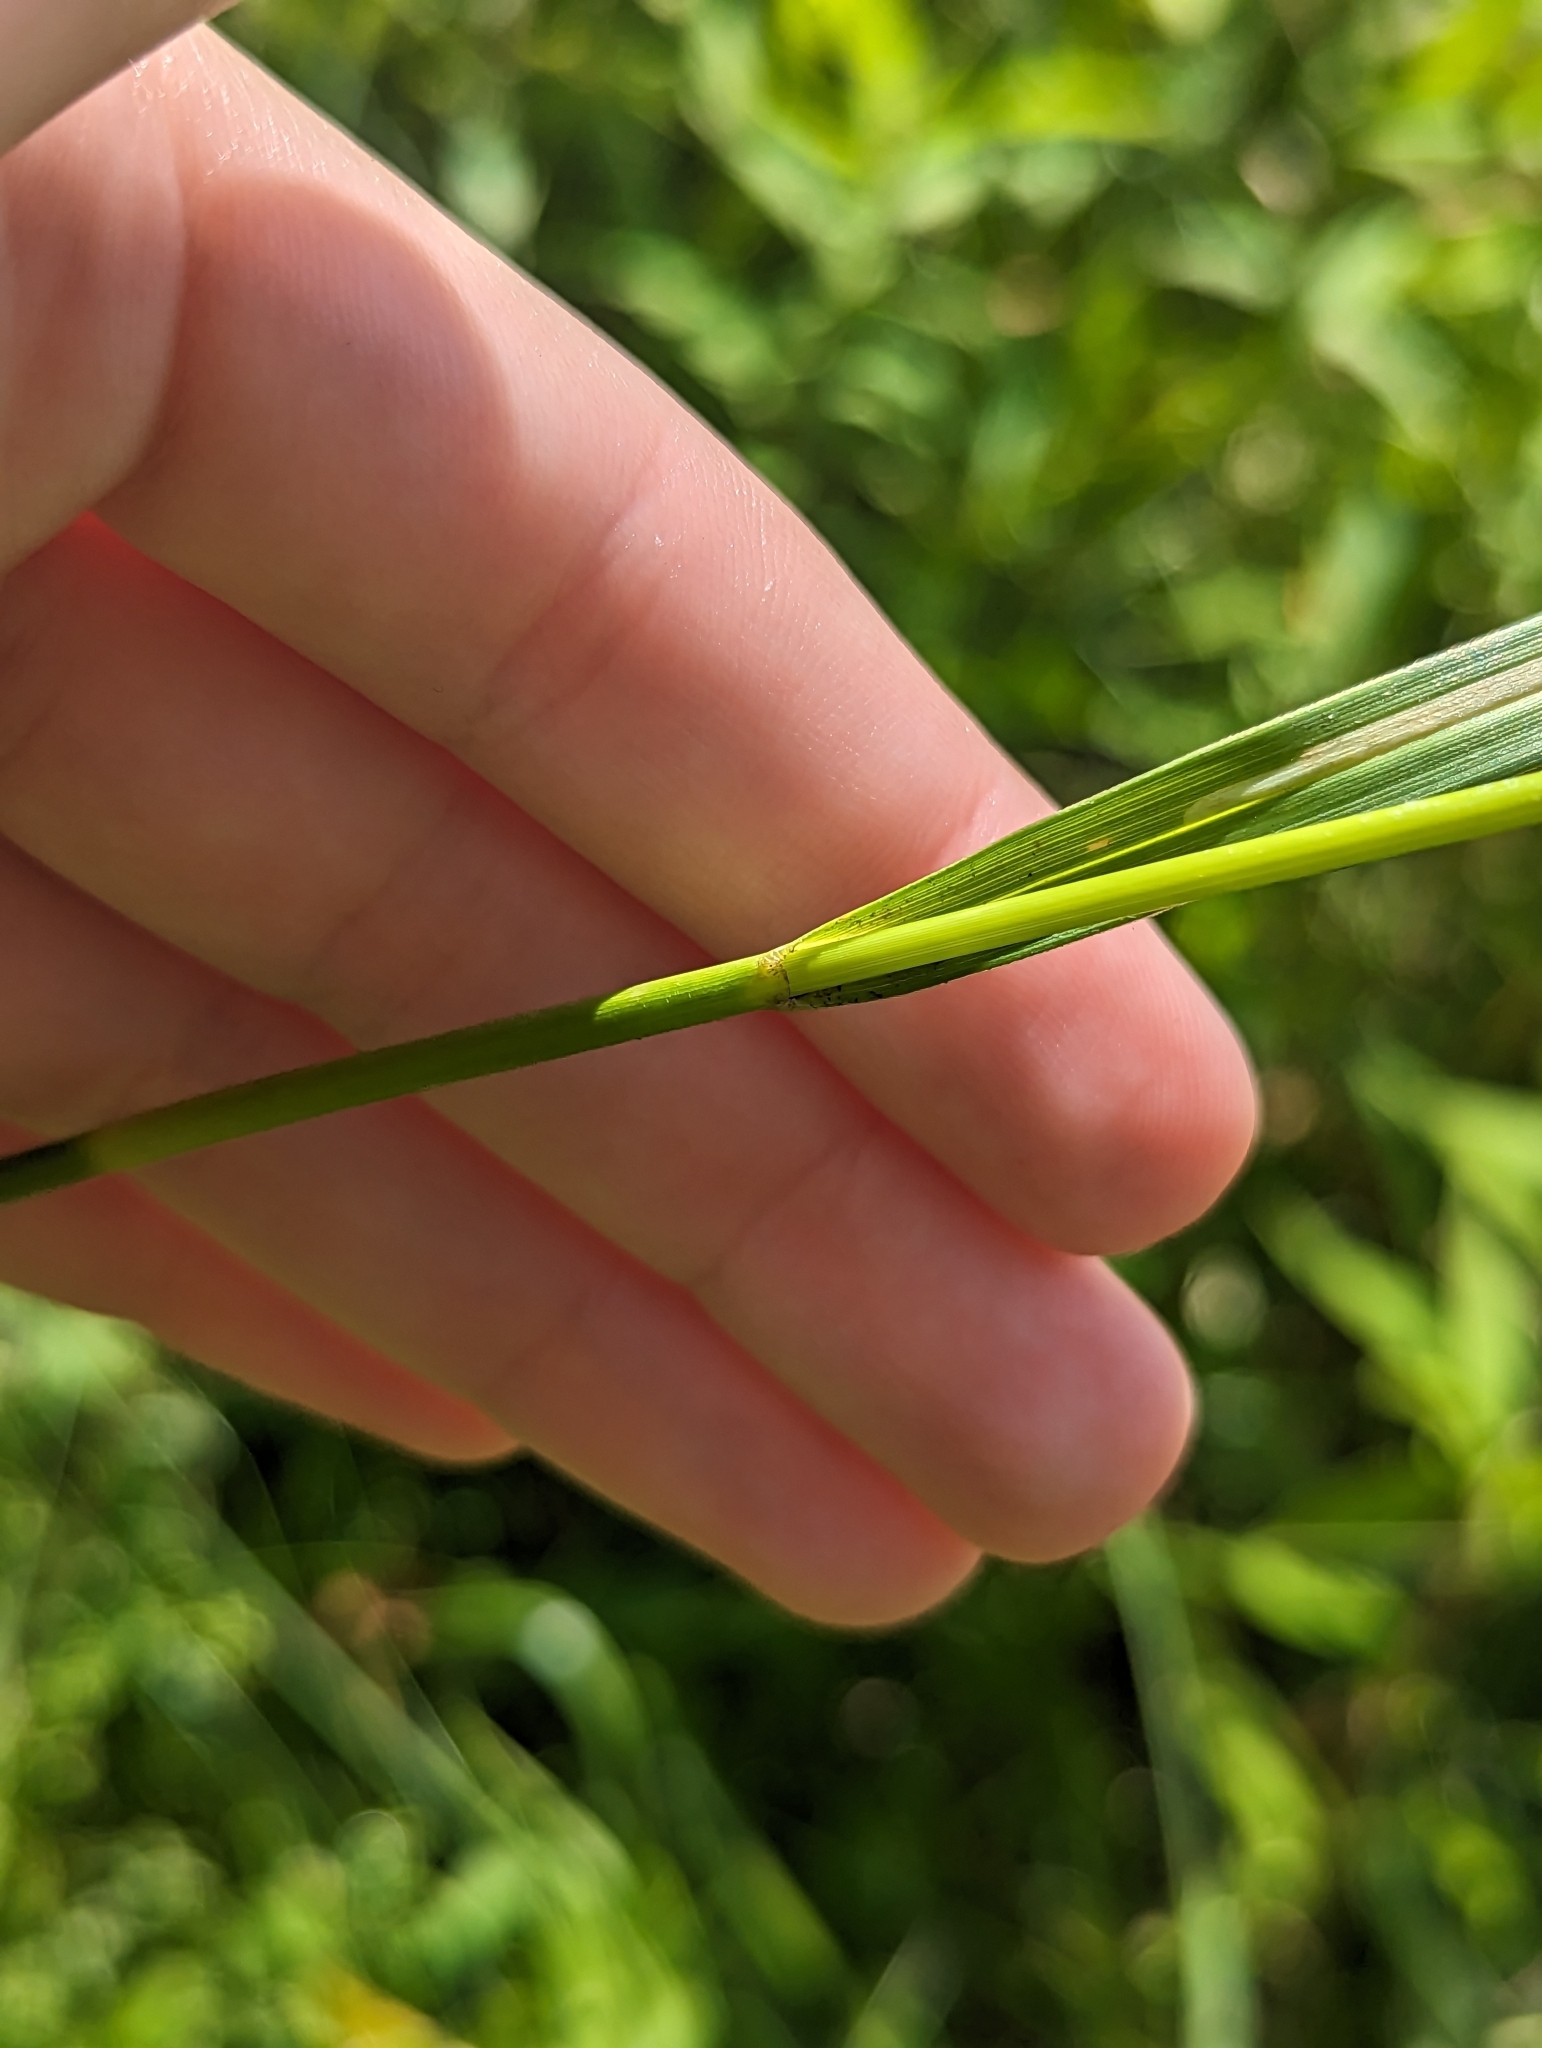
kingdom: Plantae
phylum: Tracheophyta
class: Liliopsida
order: Poales
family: Cyperaceae
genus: Scirpus
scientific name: Scirpus pendulus
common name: Nodding bulrush
